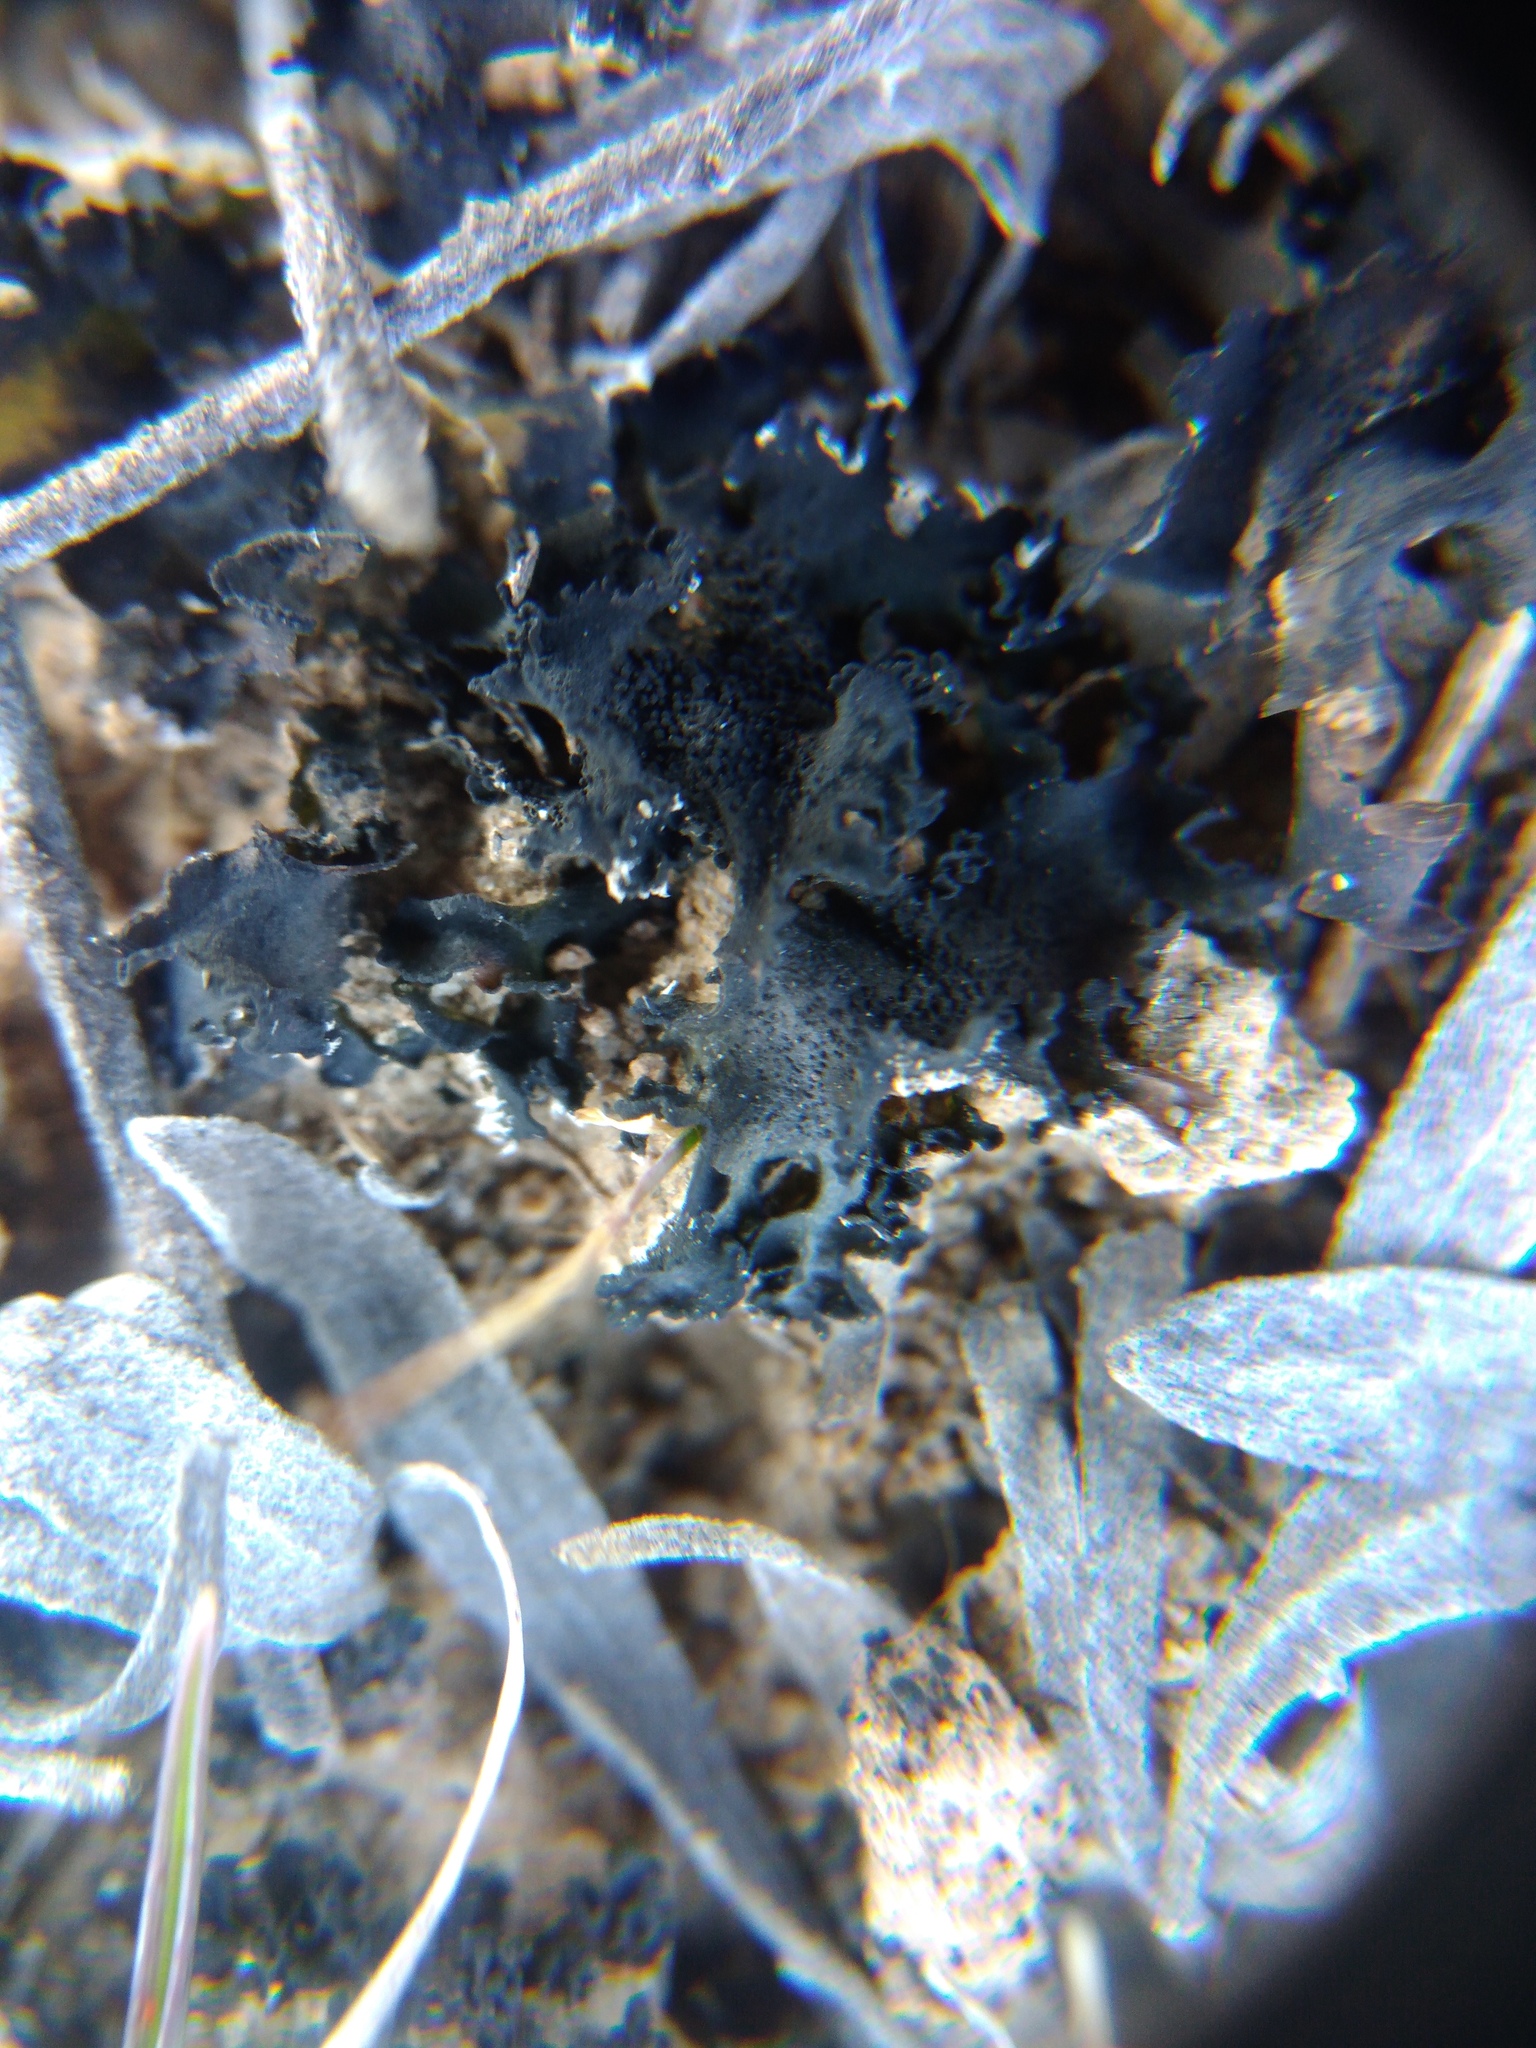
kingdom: Fungi
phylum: Ascomycota
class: Lecanoromycetes
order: Peltigerales
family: Collemataceae
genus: Blennothallia
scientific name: Blennothallia crispa
